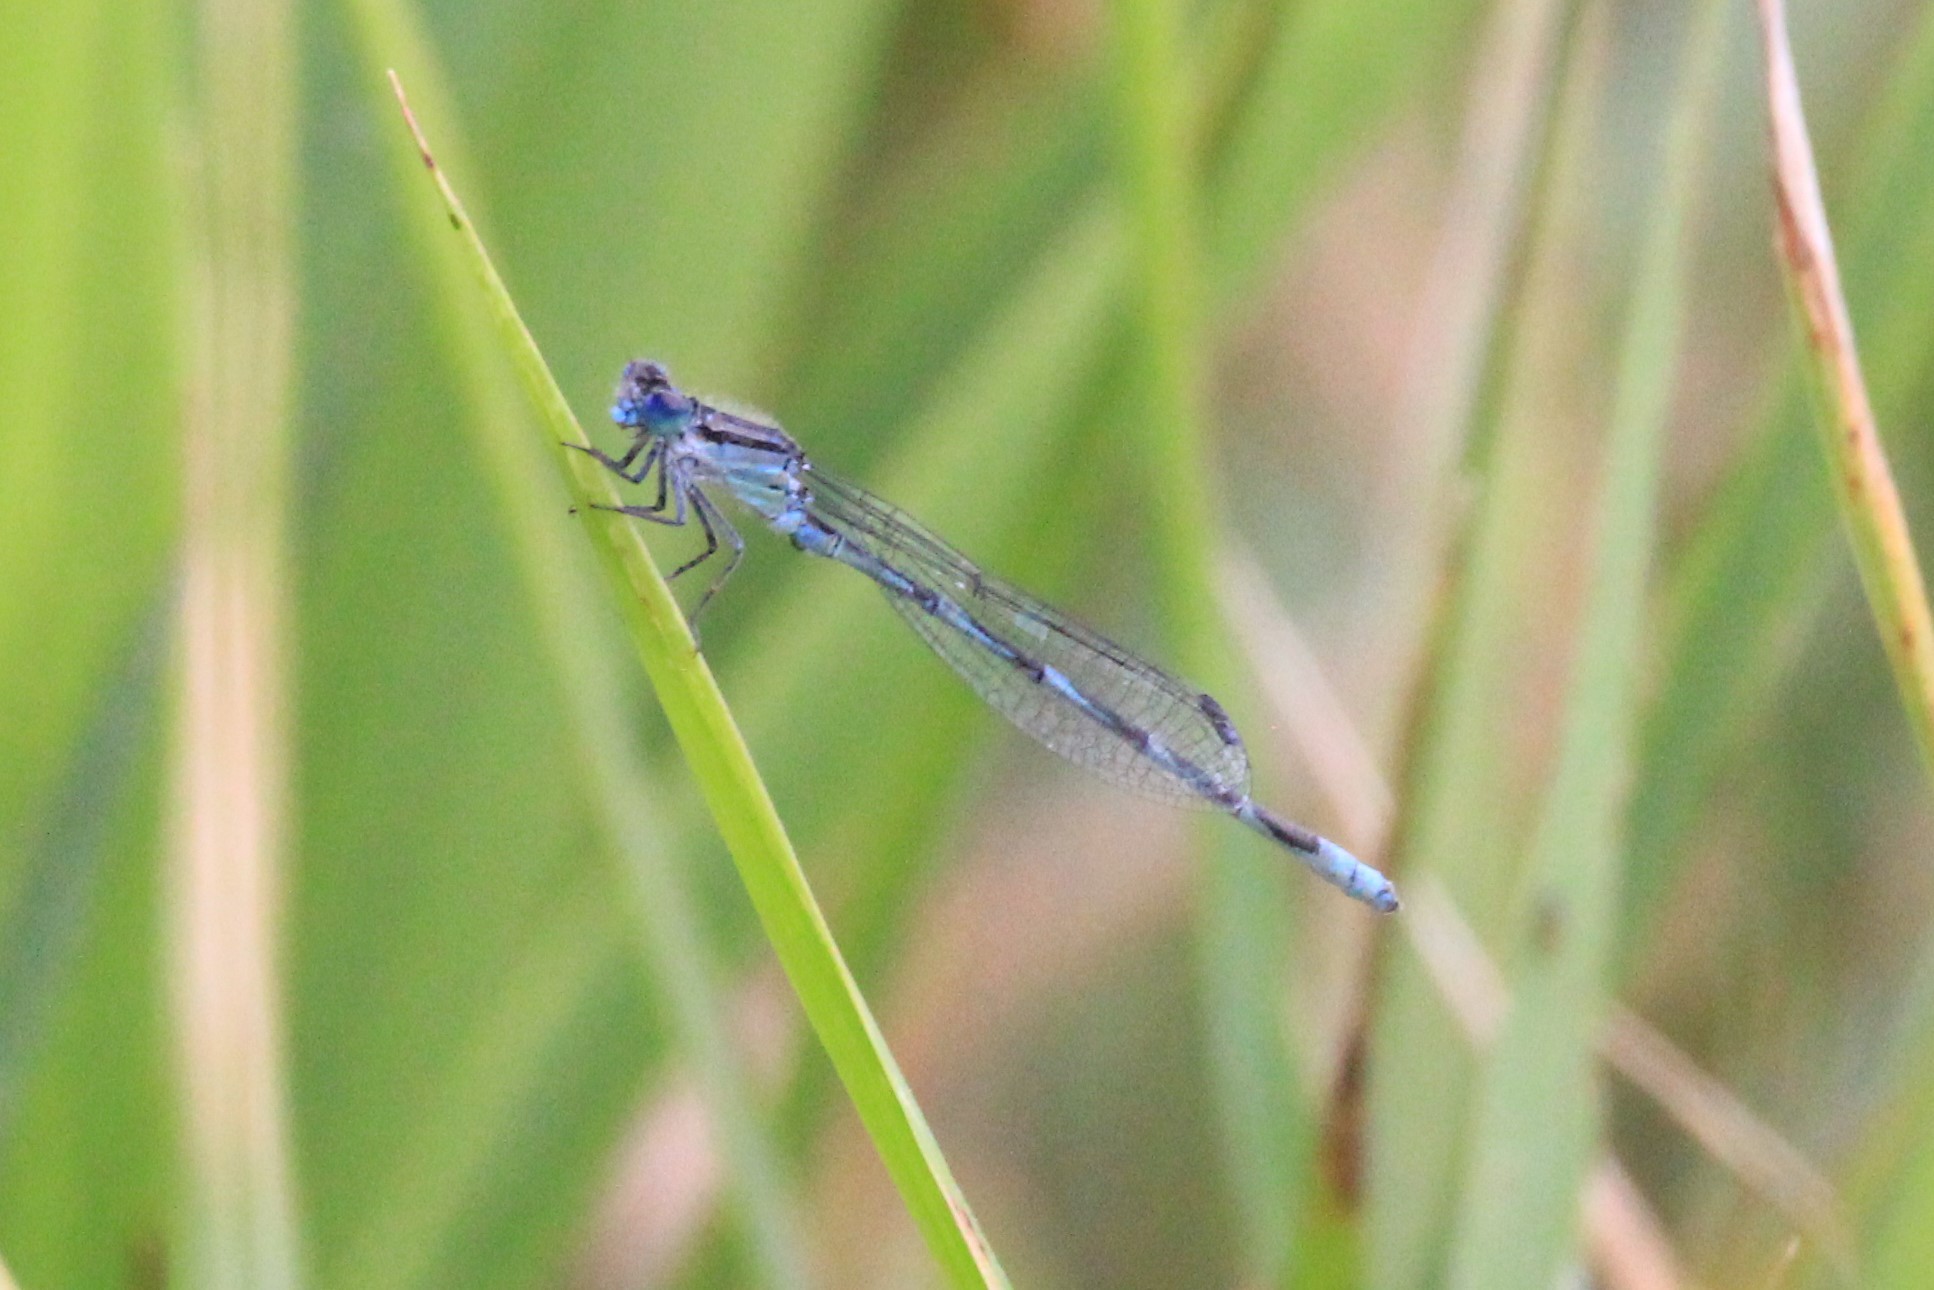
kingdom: Animalia
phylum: Arthropoda
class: Insecta
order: Odonata
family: Coenagrionidae
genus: Enallagma
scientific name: Enallagma carunculatum
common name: Tule bluet
